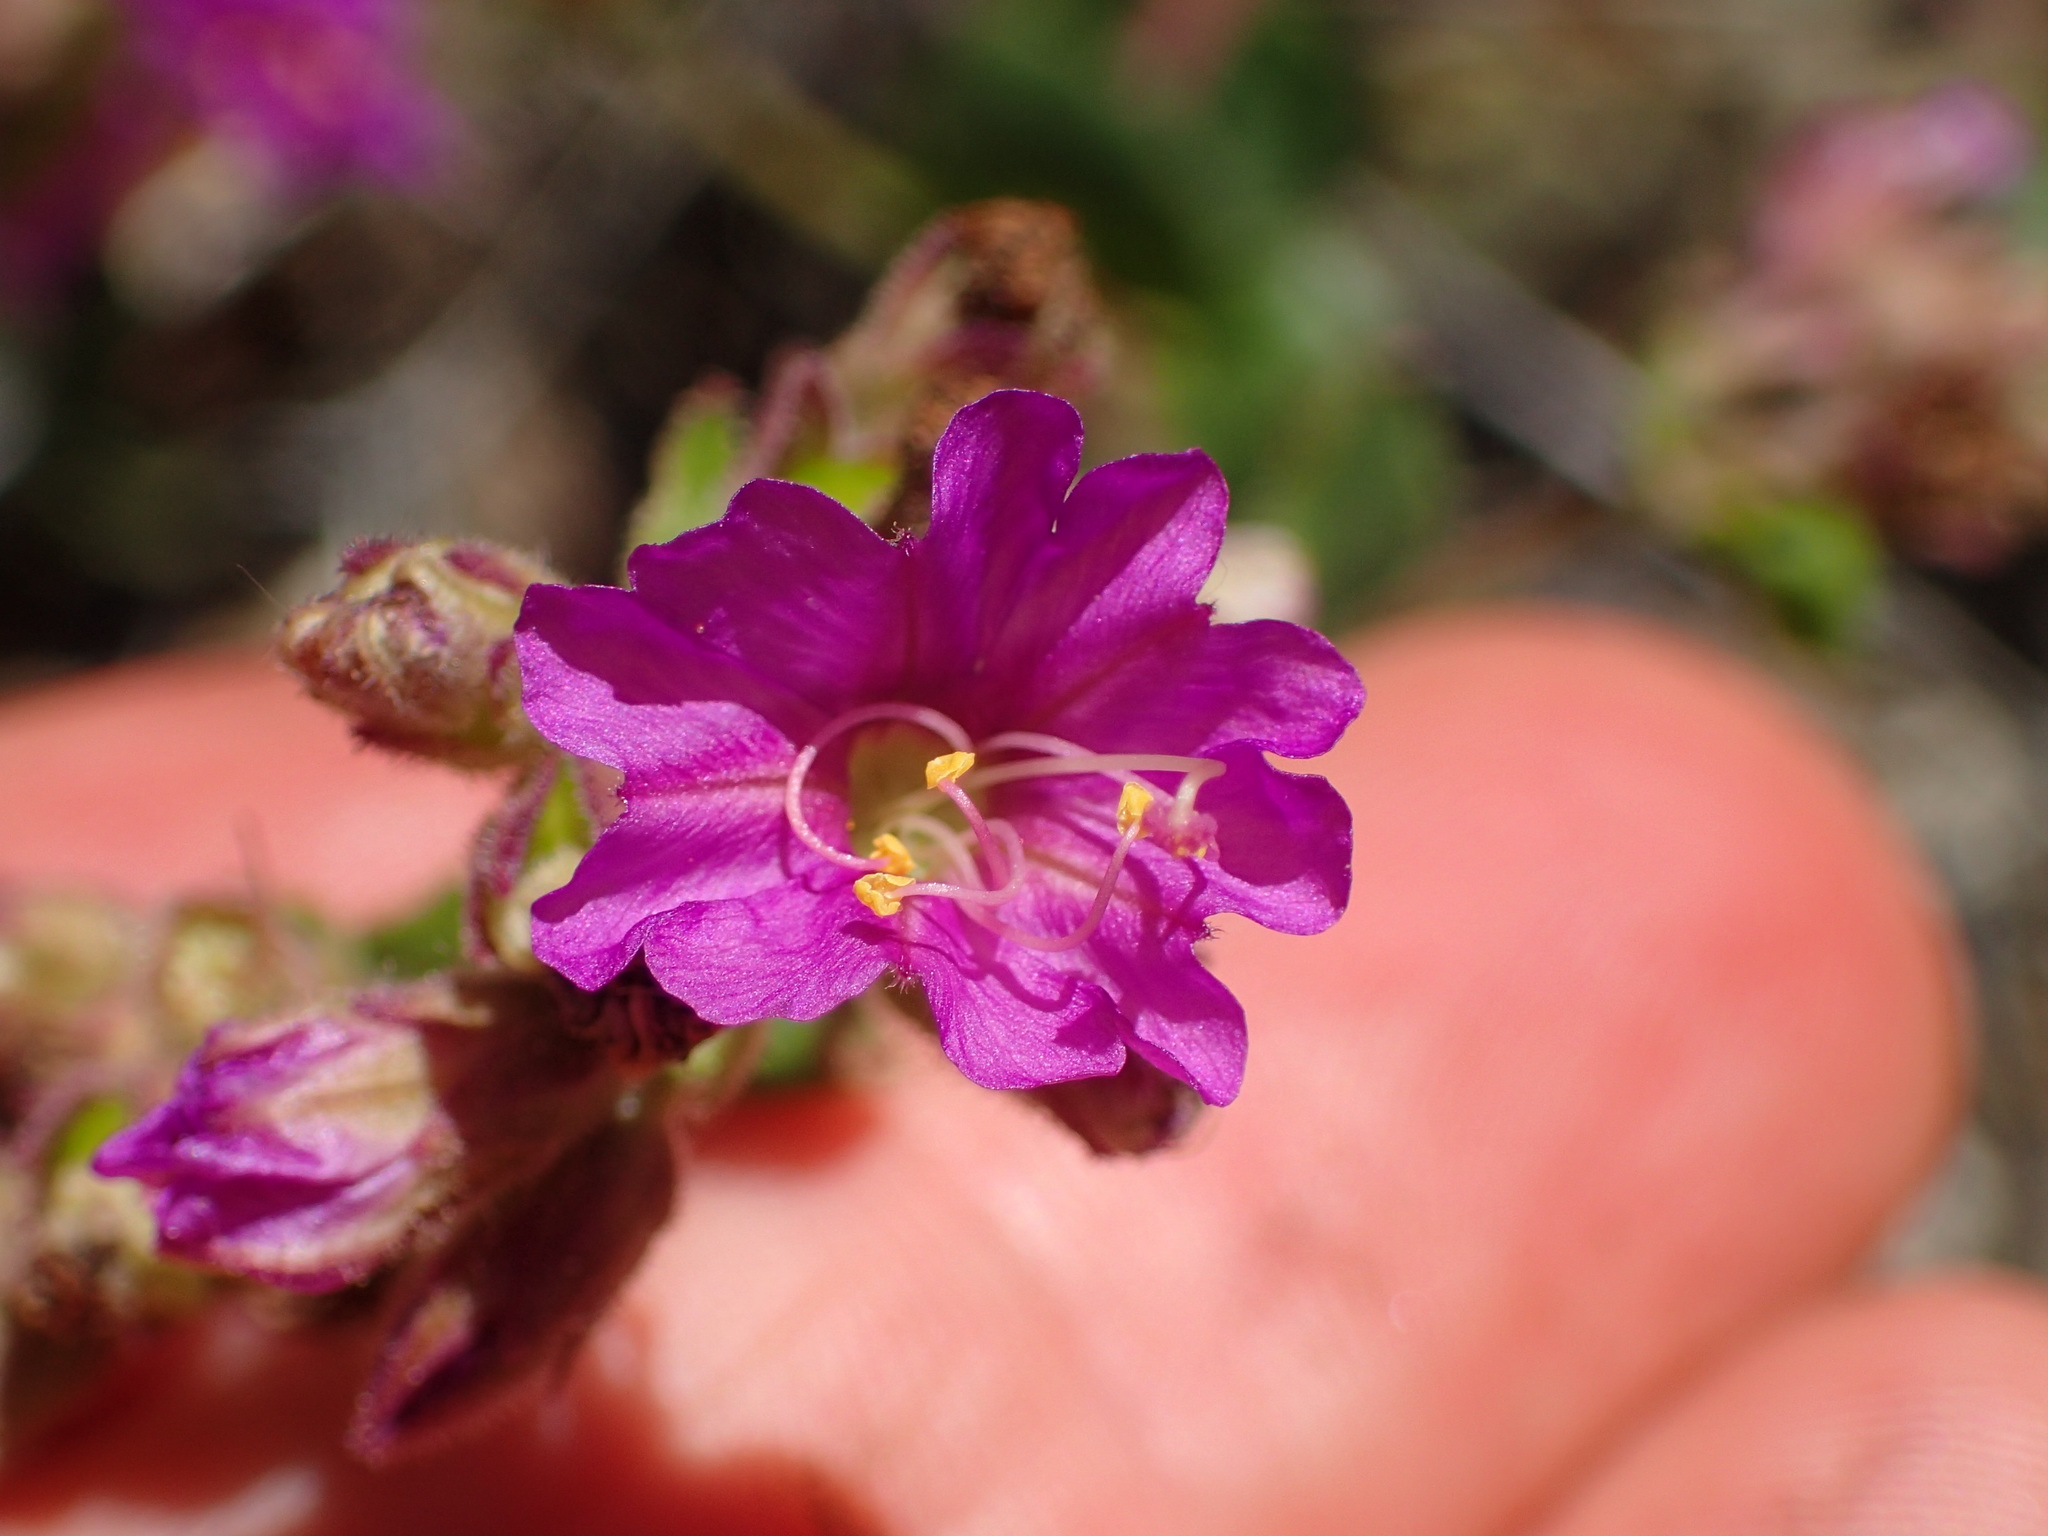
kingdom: Plantae
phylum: Tracheophyta
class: Magnoliopsida
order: Caryophyllales
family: Nyctaginaceae
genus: Mirabilis
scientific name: Mirabilis laevis
